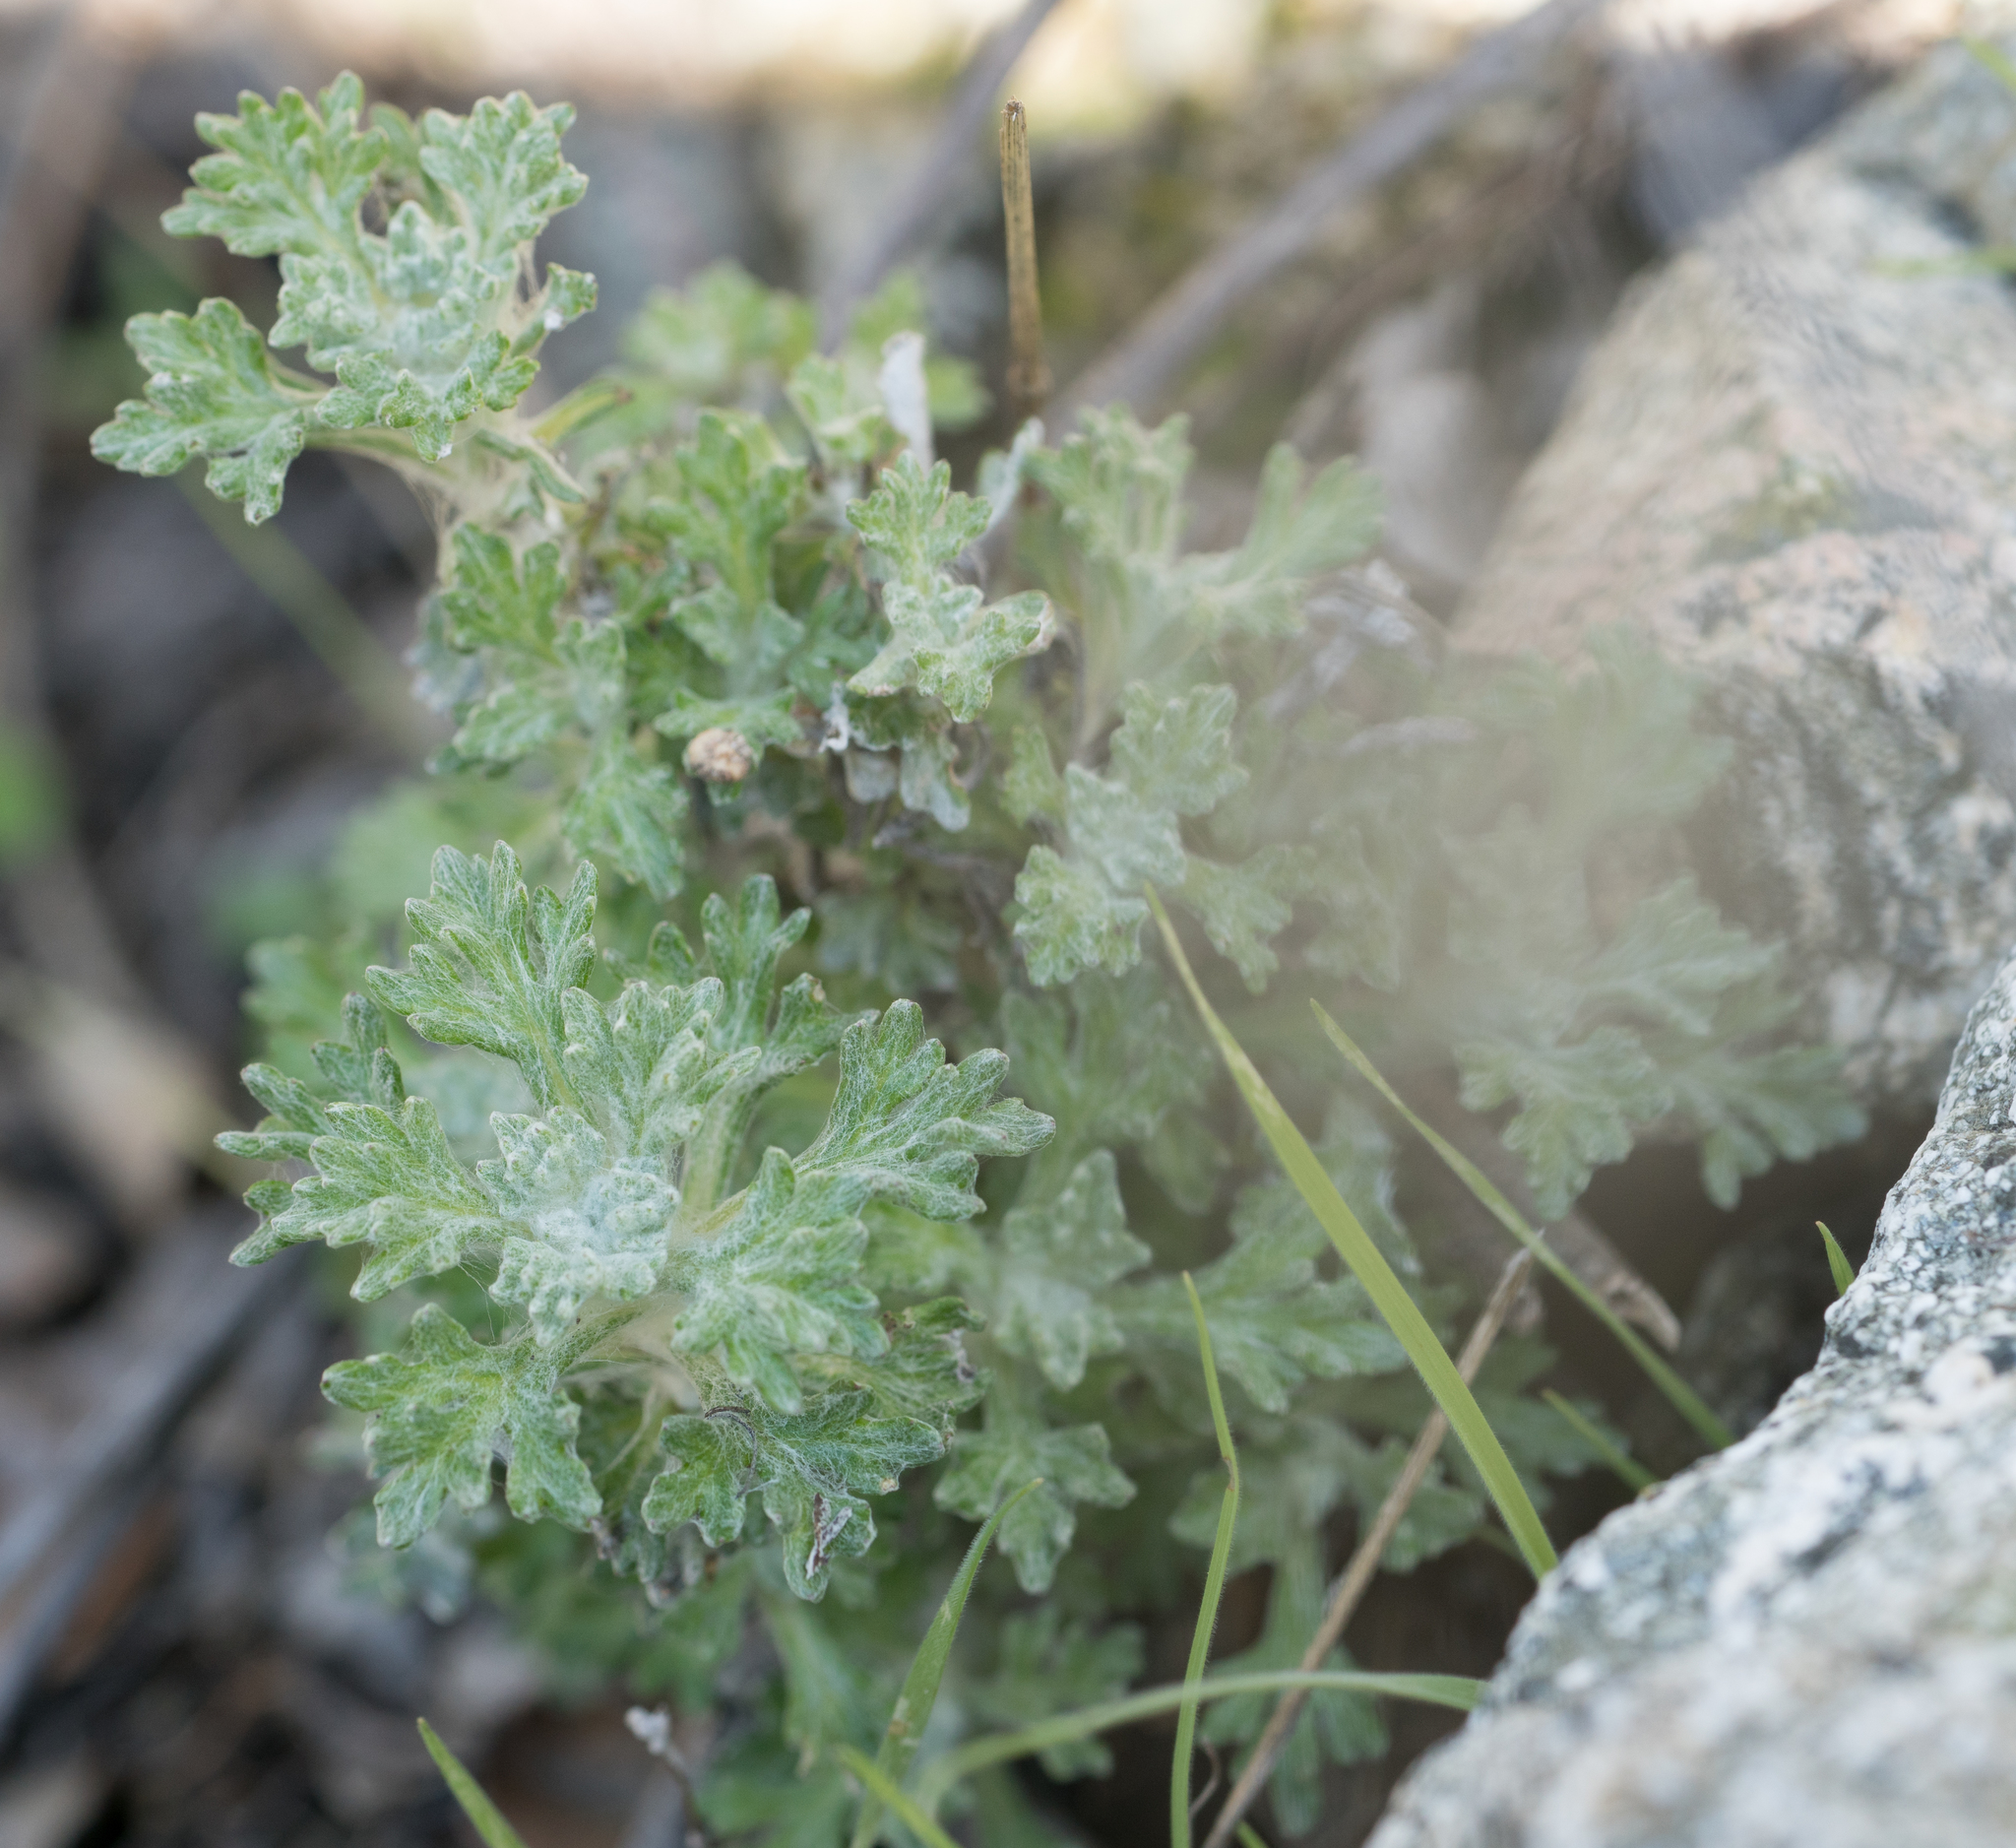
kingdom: Plantae
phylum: Tracheophyta
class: Magnoliopsida
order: Asterales
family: Asteraceae
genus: Eriophyllum
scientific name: Eriophyllum confertiflorum
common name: Golden-yarrow
